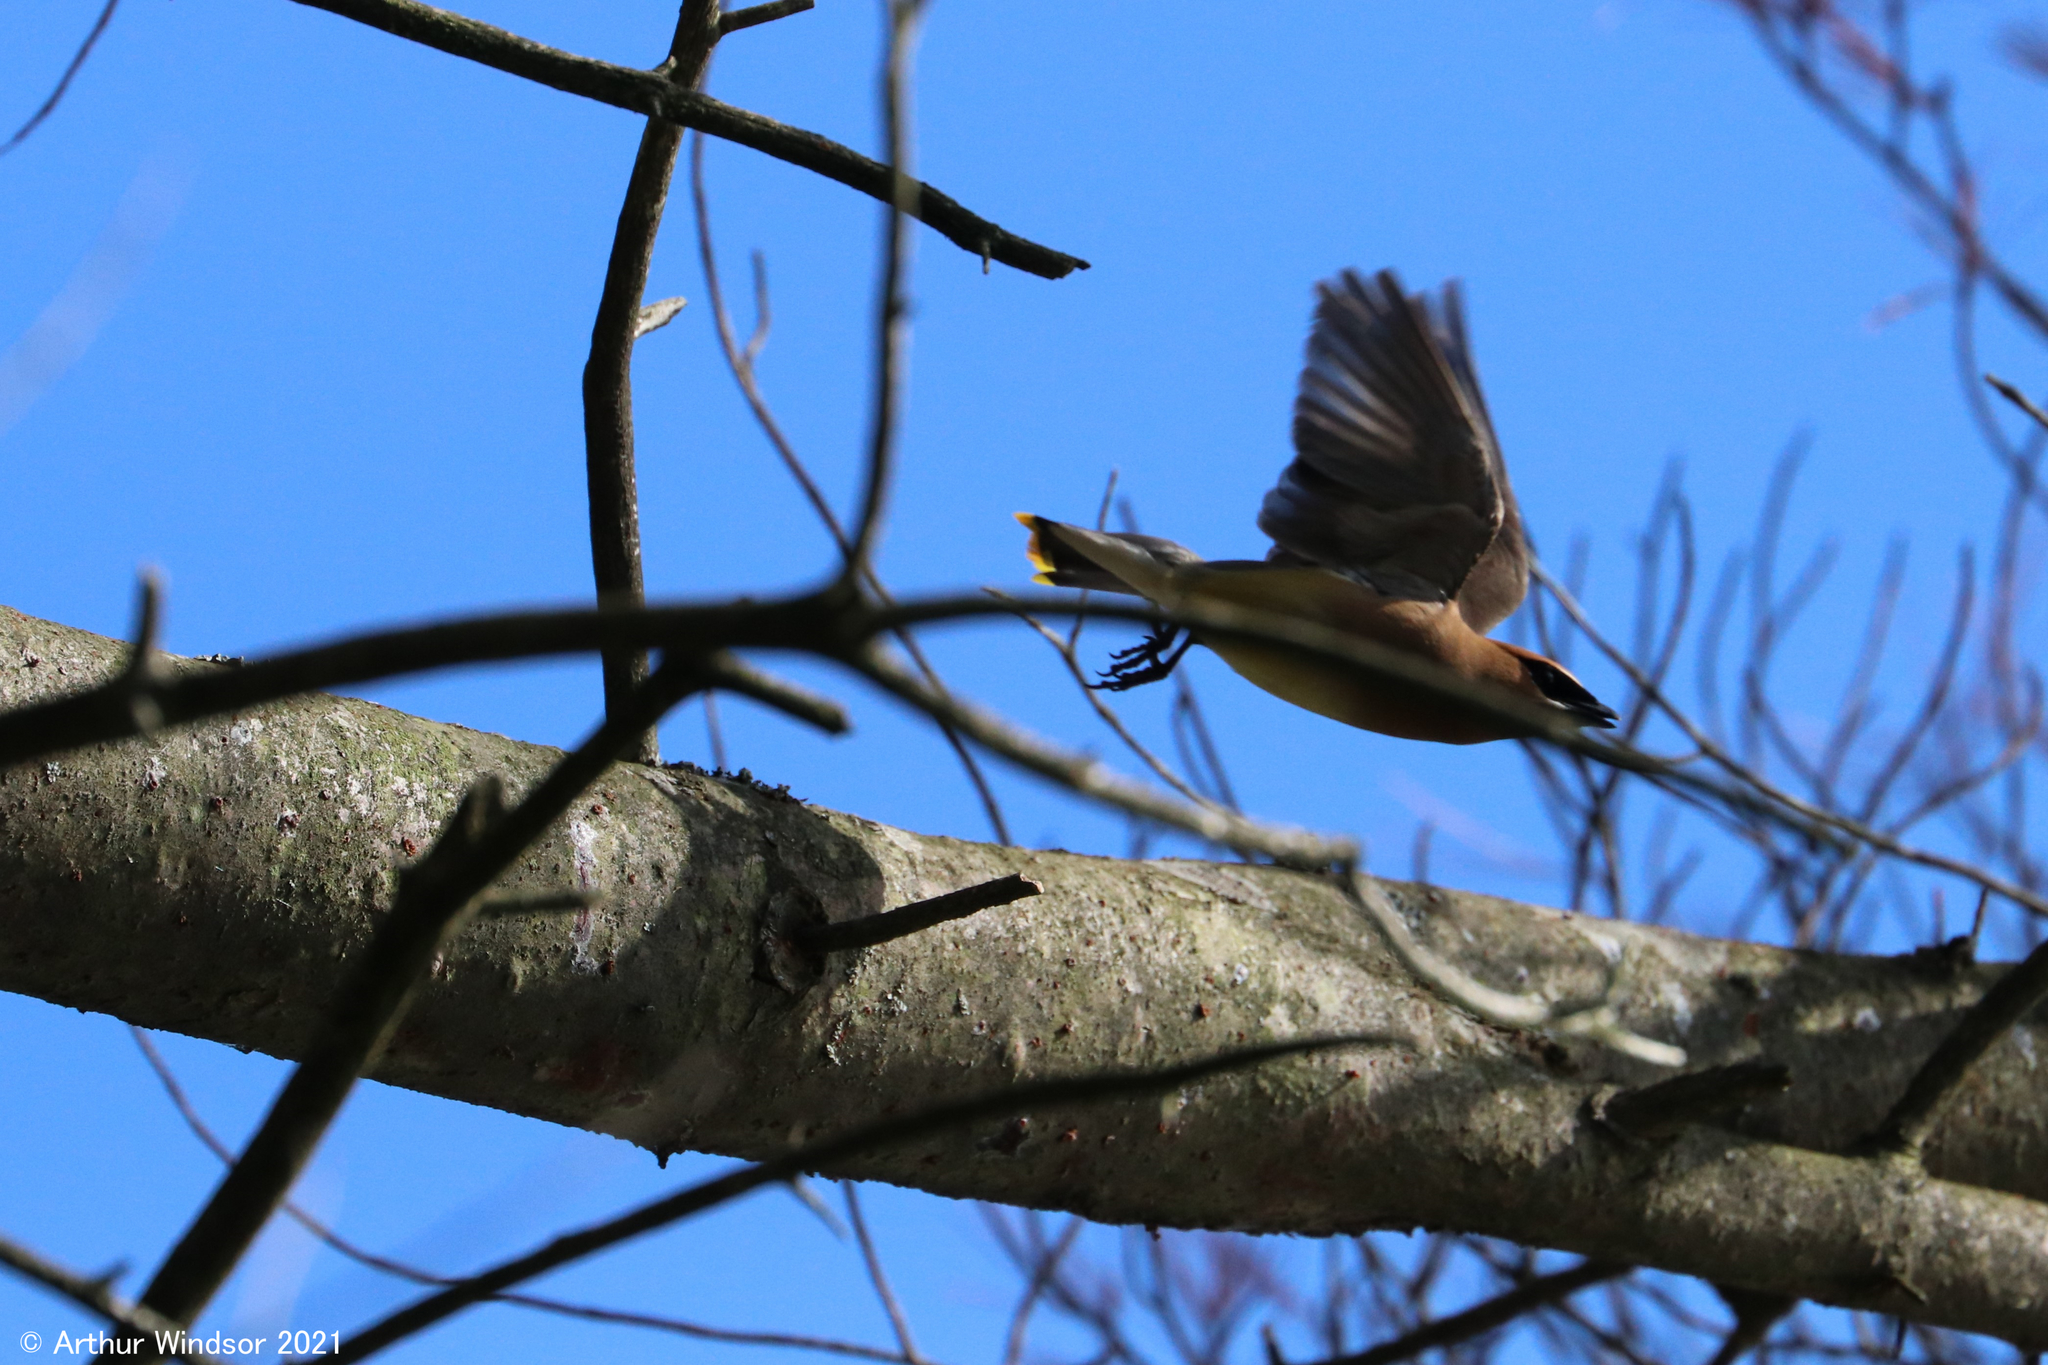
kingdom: Animalia
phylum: Chordata
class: Aves
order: Passeriformes
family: Bombycillidae
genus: Bombycilla
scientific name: Bombycilla cedrorum
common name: Cedar waxwing
